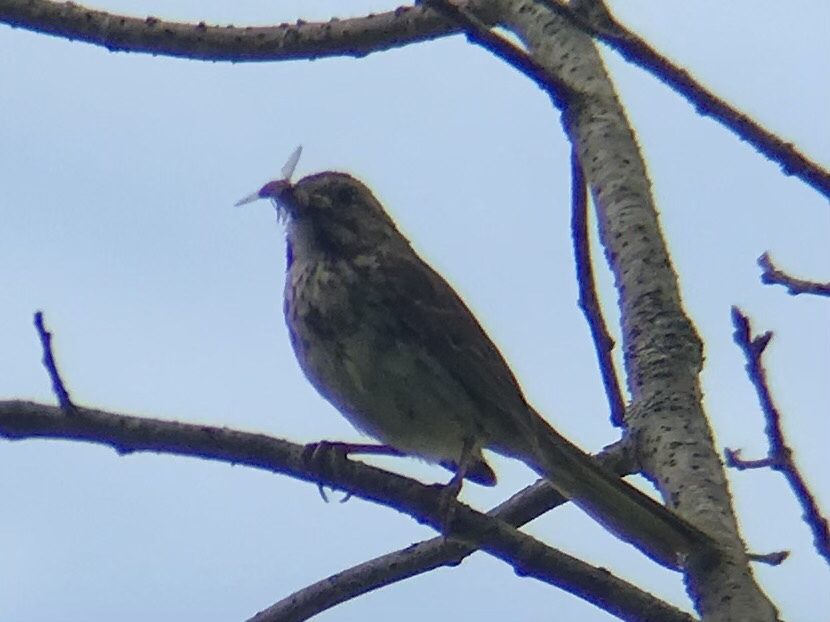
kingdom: Animalia
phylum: Chordata
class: Aves
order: Passeriformes
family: Passerellidae
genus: Melospiza
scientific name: Melospiza melodia
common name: Song sparrow
